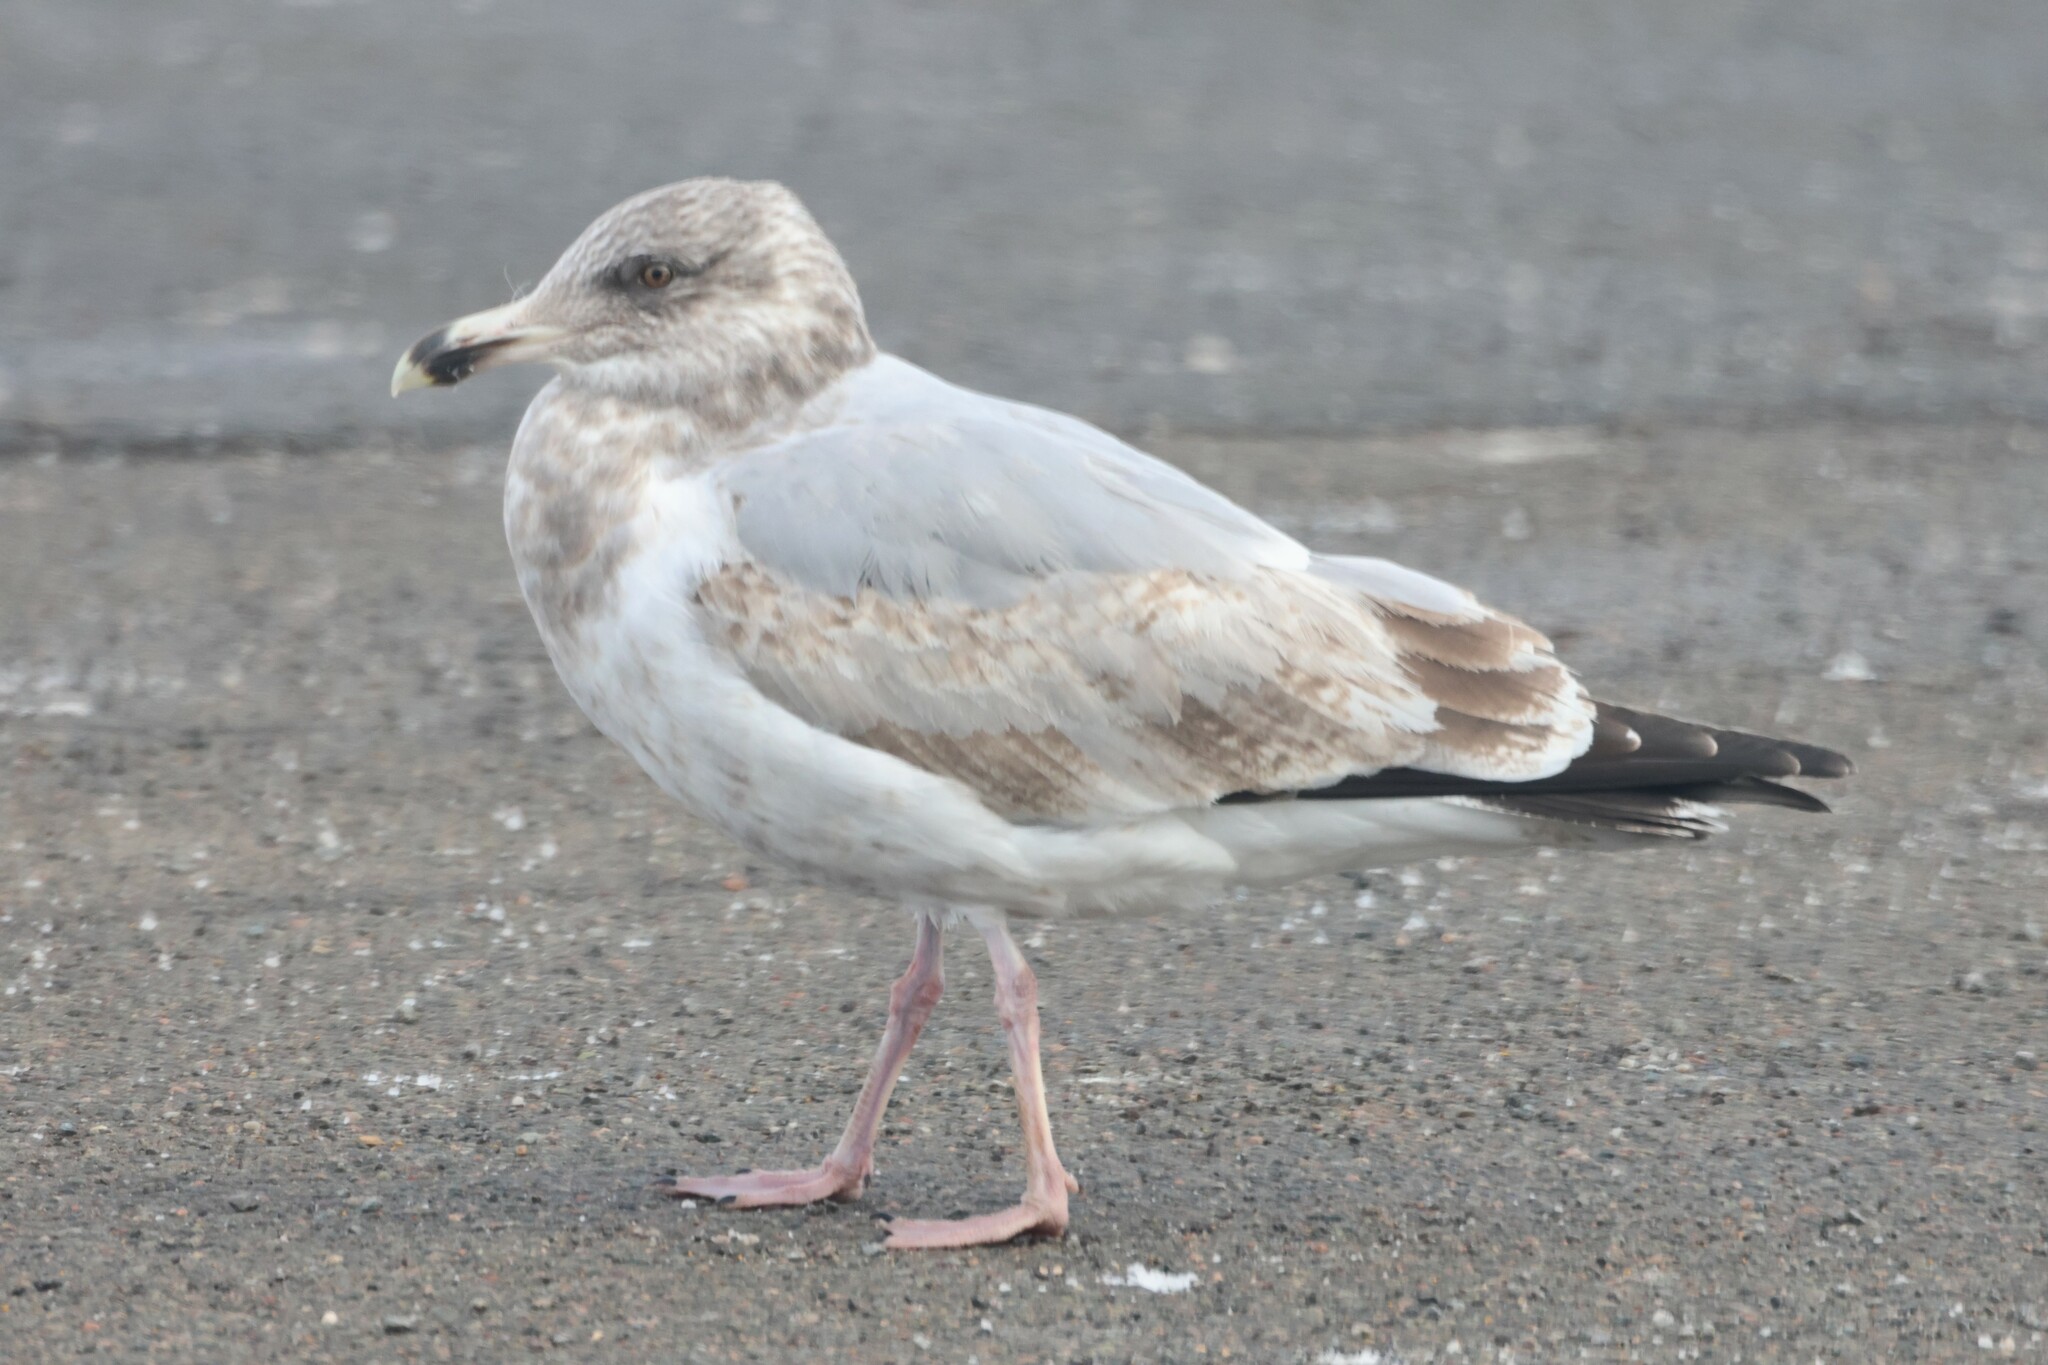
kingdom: Animalia
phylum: Chordata
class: Aves
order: Charadriiformes
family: Laridae
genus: Larus
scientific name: Larus argentatus
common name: Herring gull
